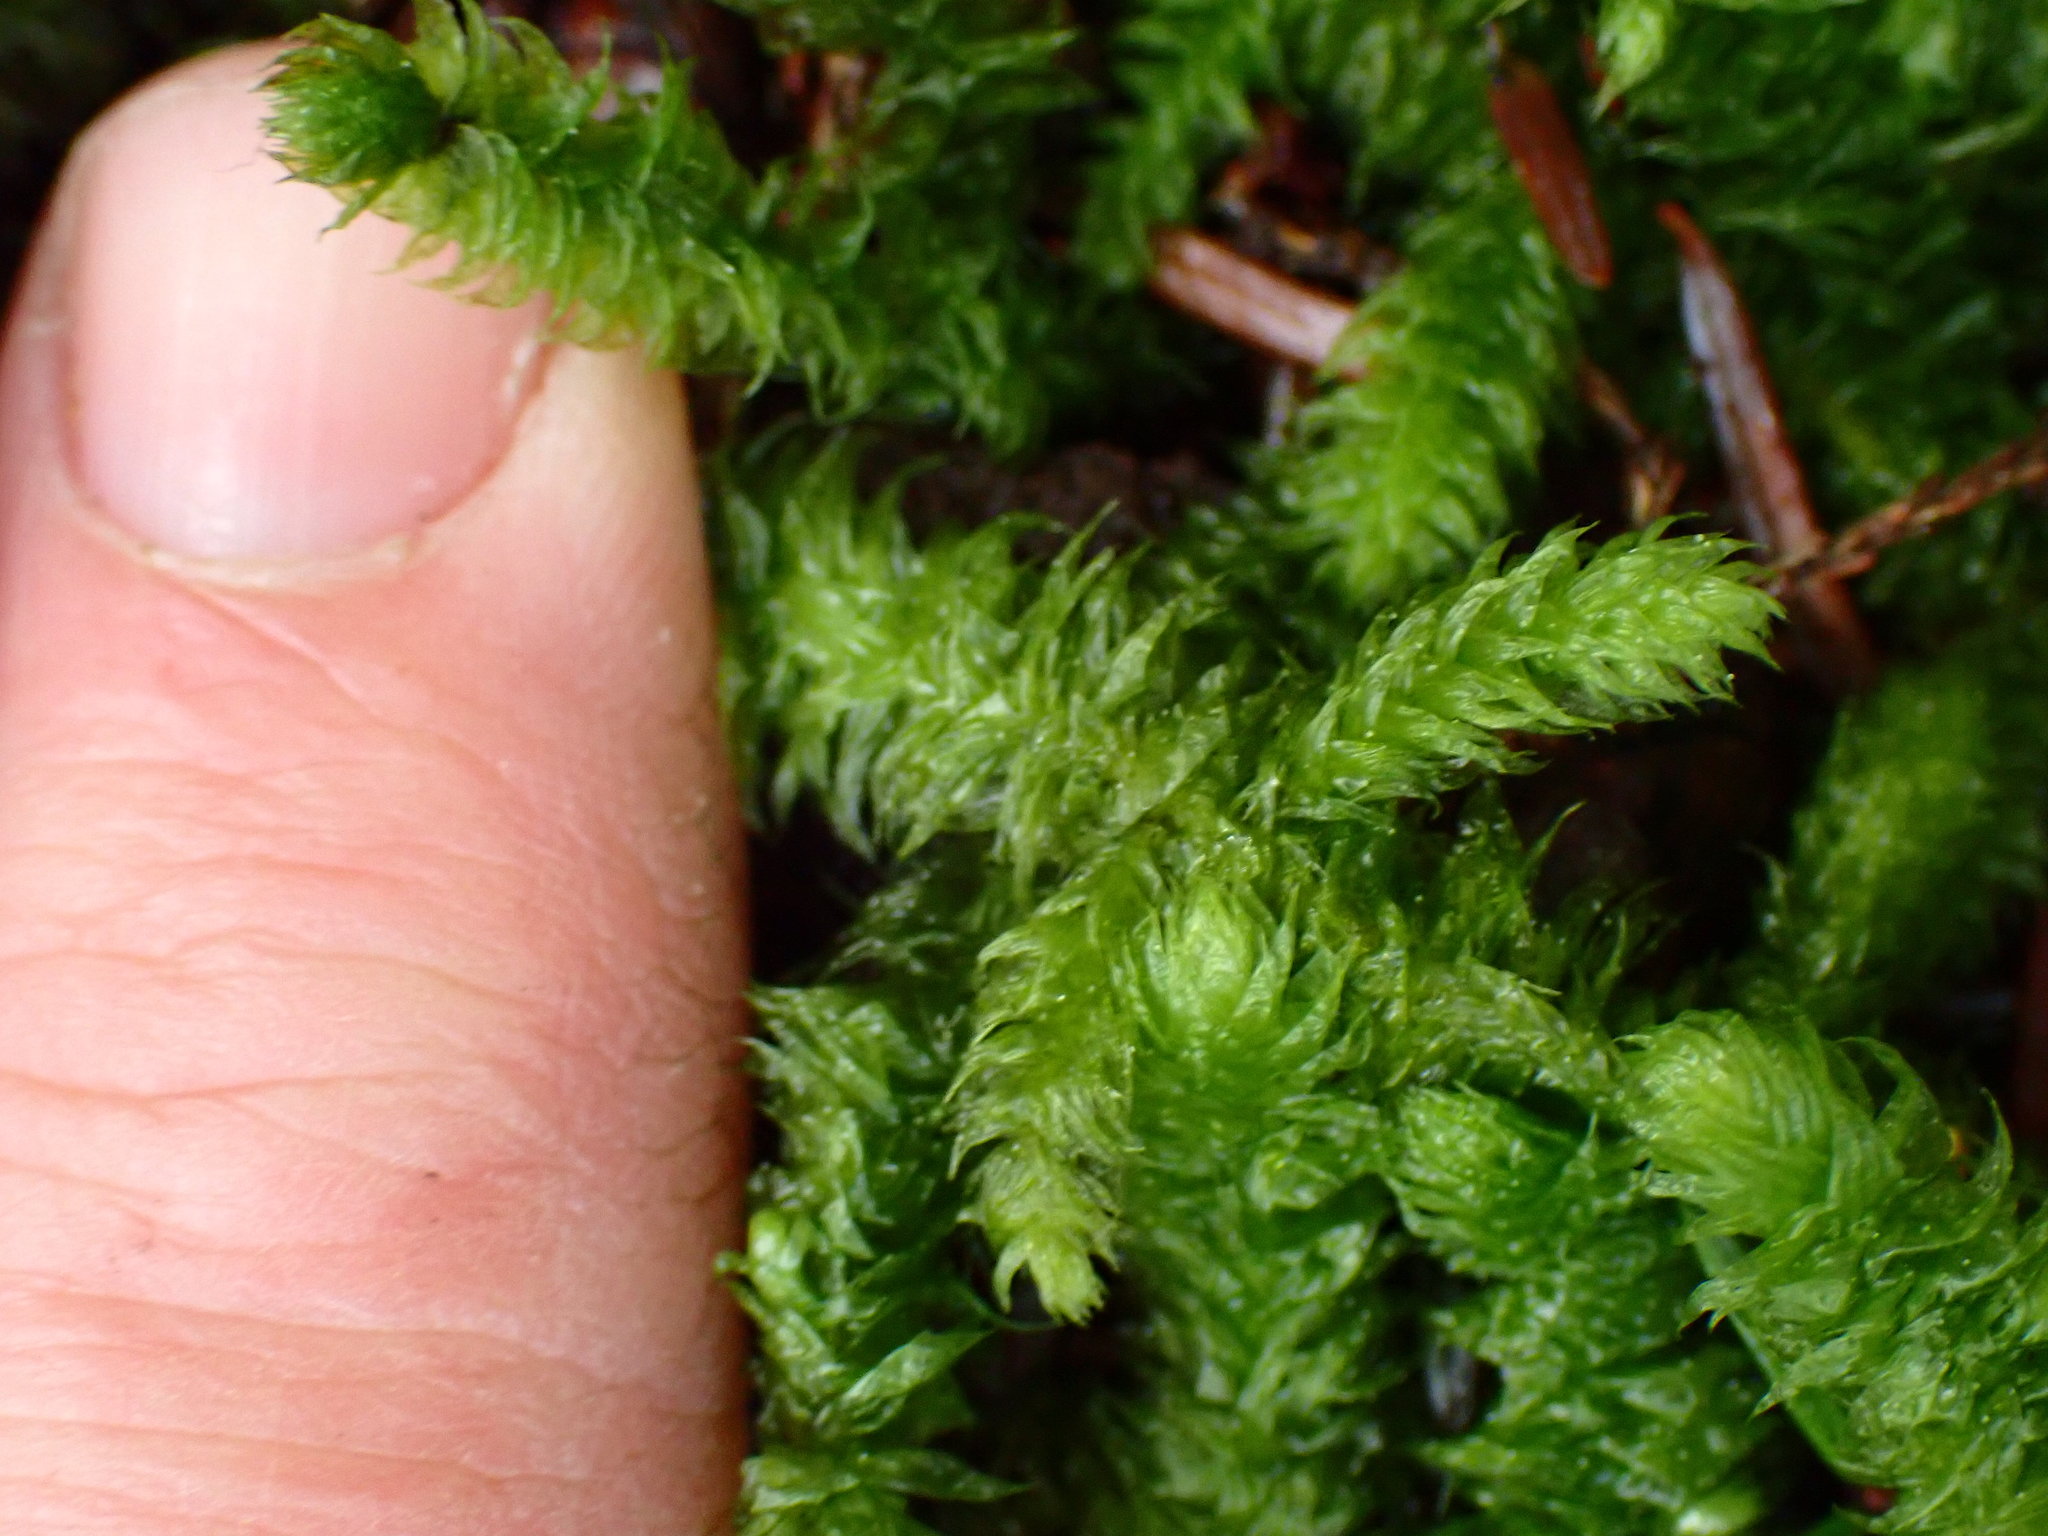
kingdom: Plantae
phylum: Bryophyta
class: Bryopsida
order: Hypnales
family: Hylocomiaceae
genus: Rhytidiopsis
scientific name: Rhytidiopsis robusta
